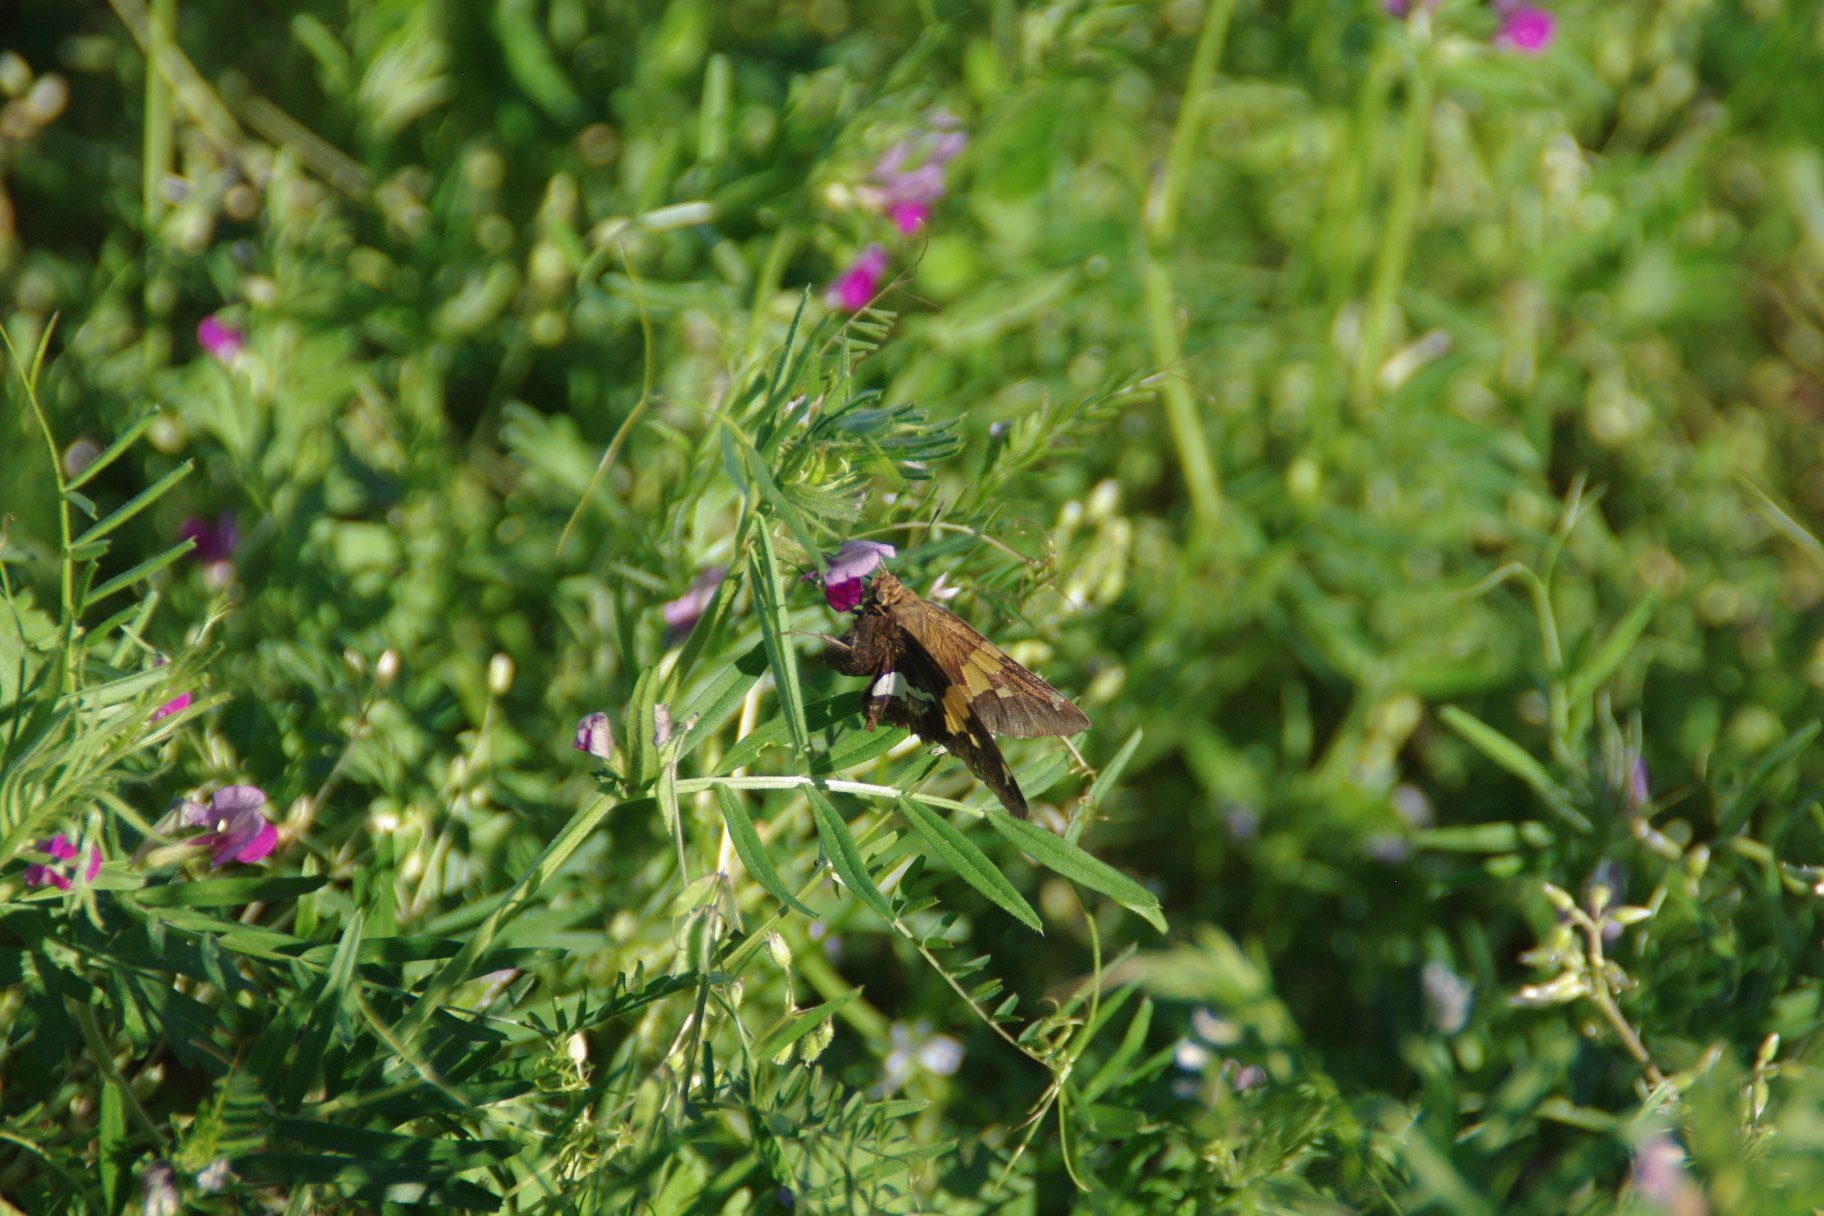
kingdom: Animalia
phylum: Arthropoda
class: Insecta
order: Lepidoptera
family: Hesperiidae
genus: Epargyreus
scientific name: Epargyreus clarus
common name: Silver-spotted skipper
